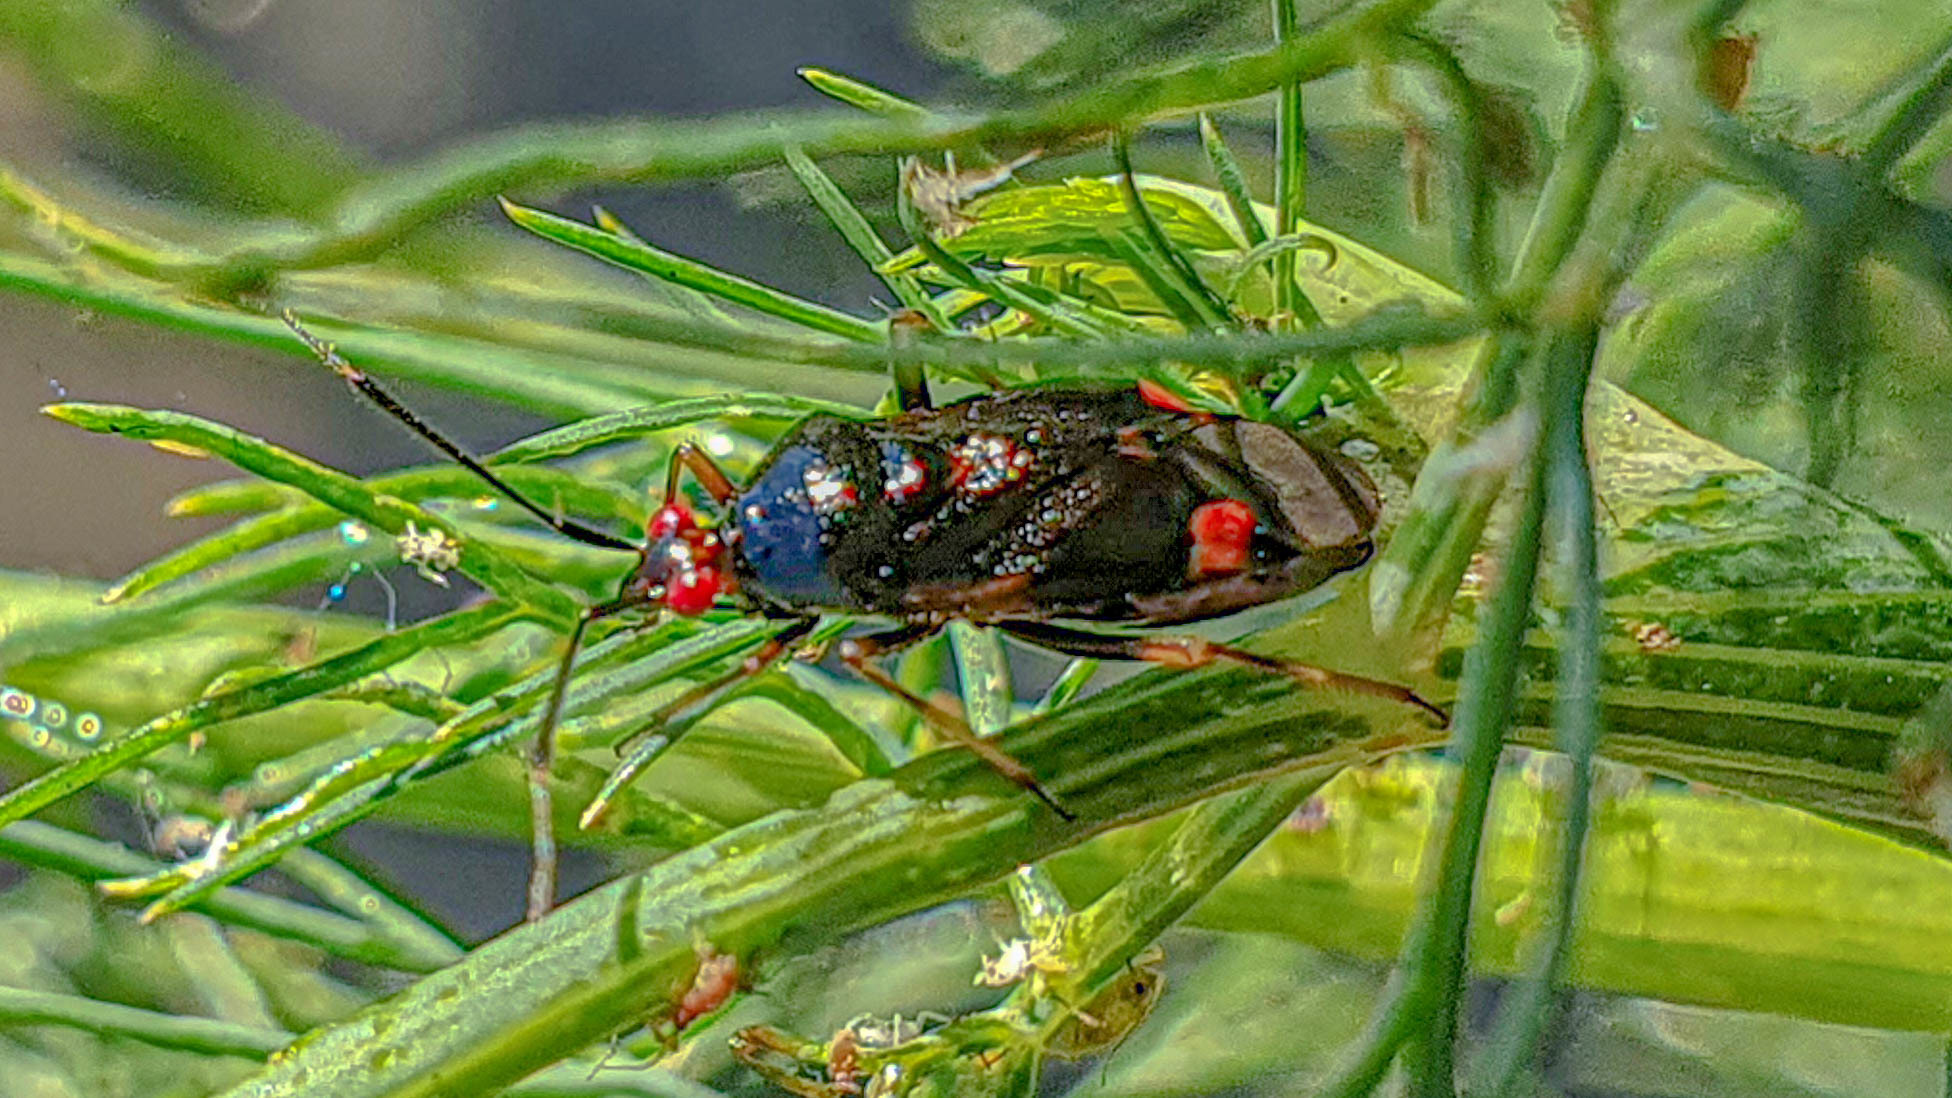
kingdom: Animalia
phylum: Arthropoda
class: Insecta
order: Hemiptera
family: Miridae
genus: Deraeocoris
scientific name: Deraeocoris ruber
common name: Plant bug
